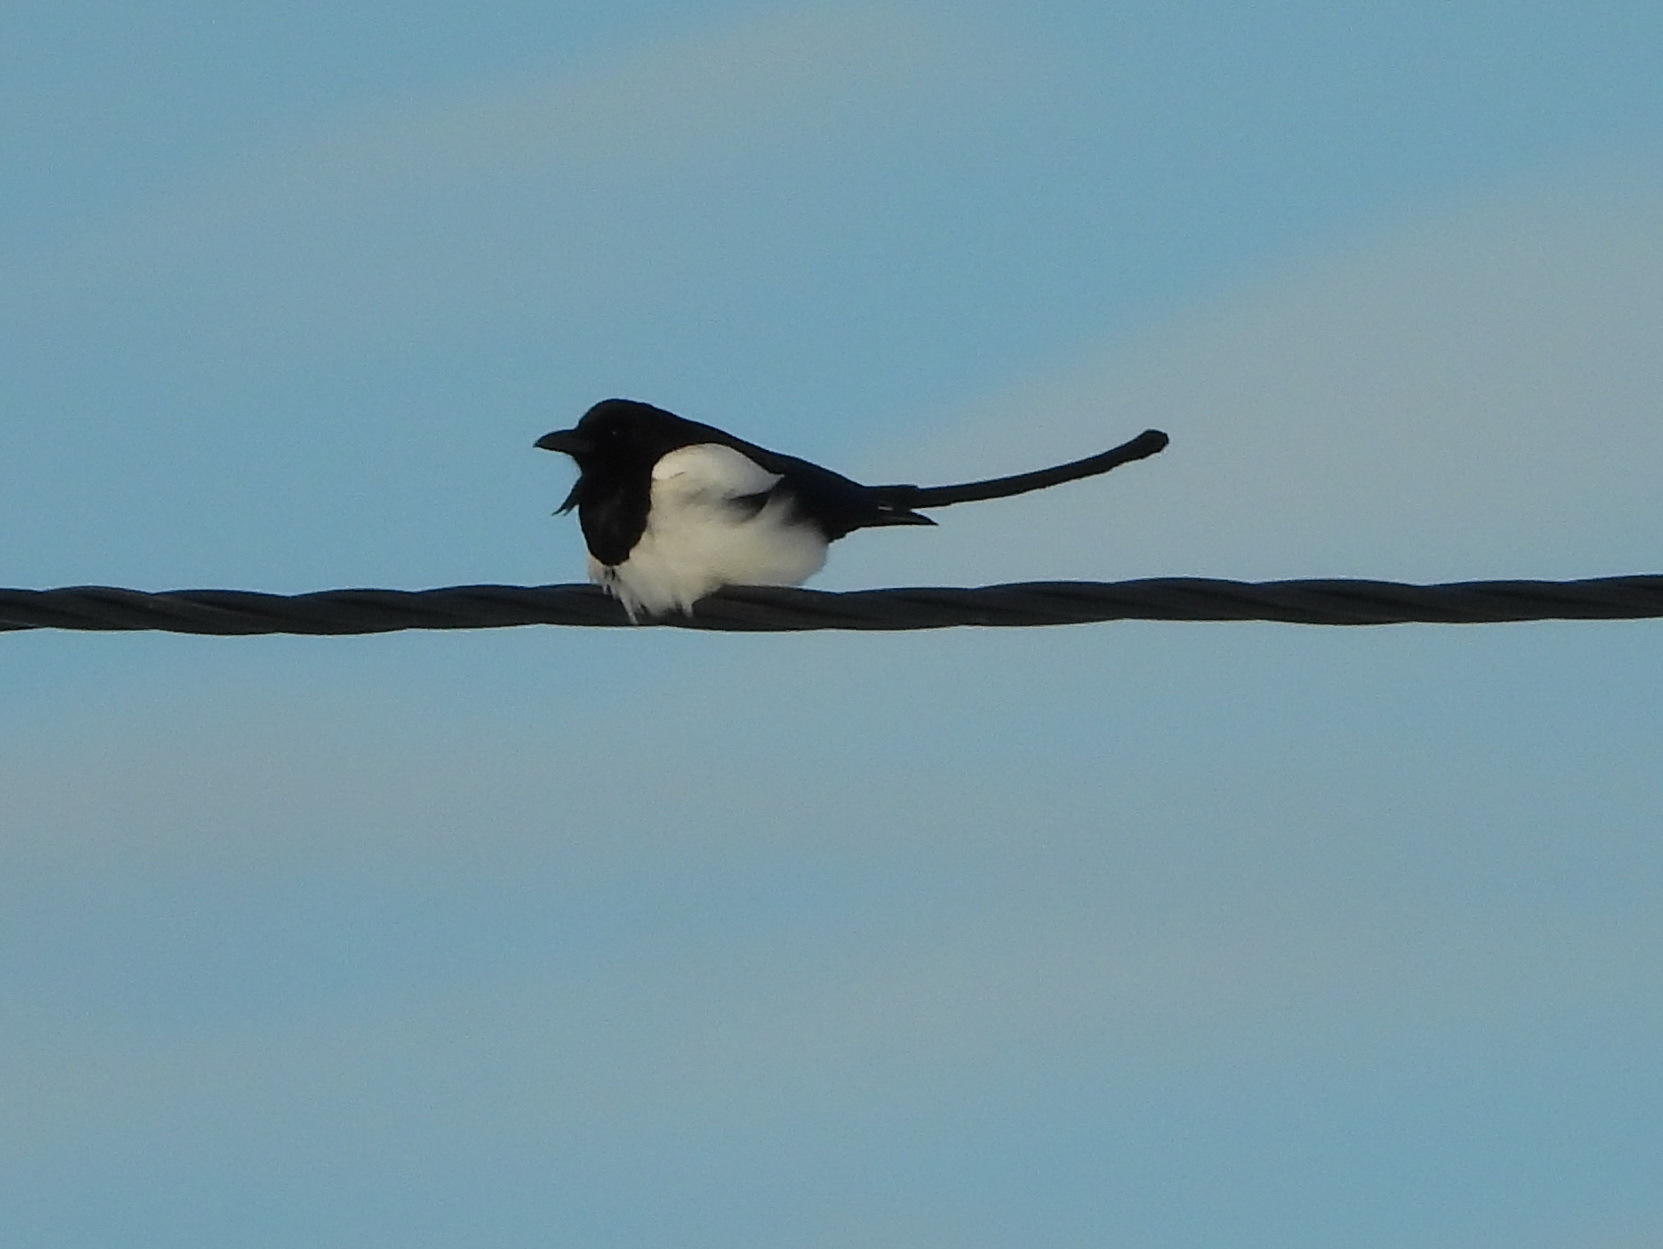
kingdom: Animalia
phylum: Chordata
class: Aves
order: Passeriformes
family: Corvidae
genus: Pica
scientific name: Pica pica
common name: Eurasian magpie
